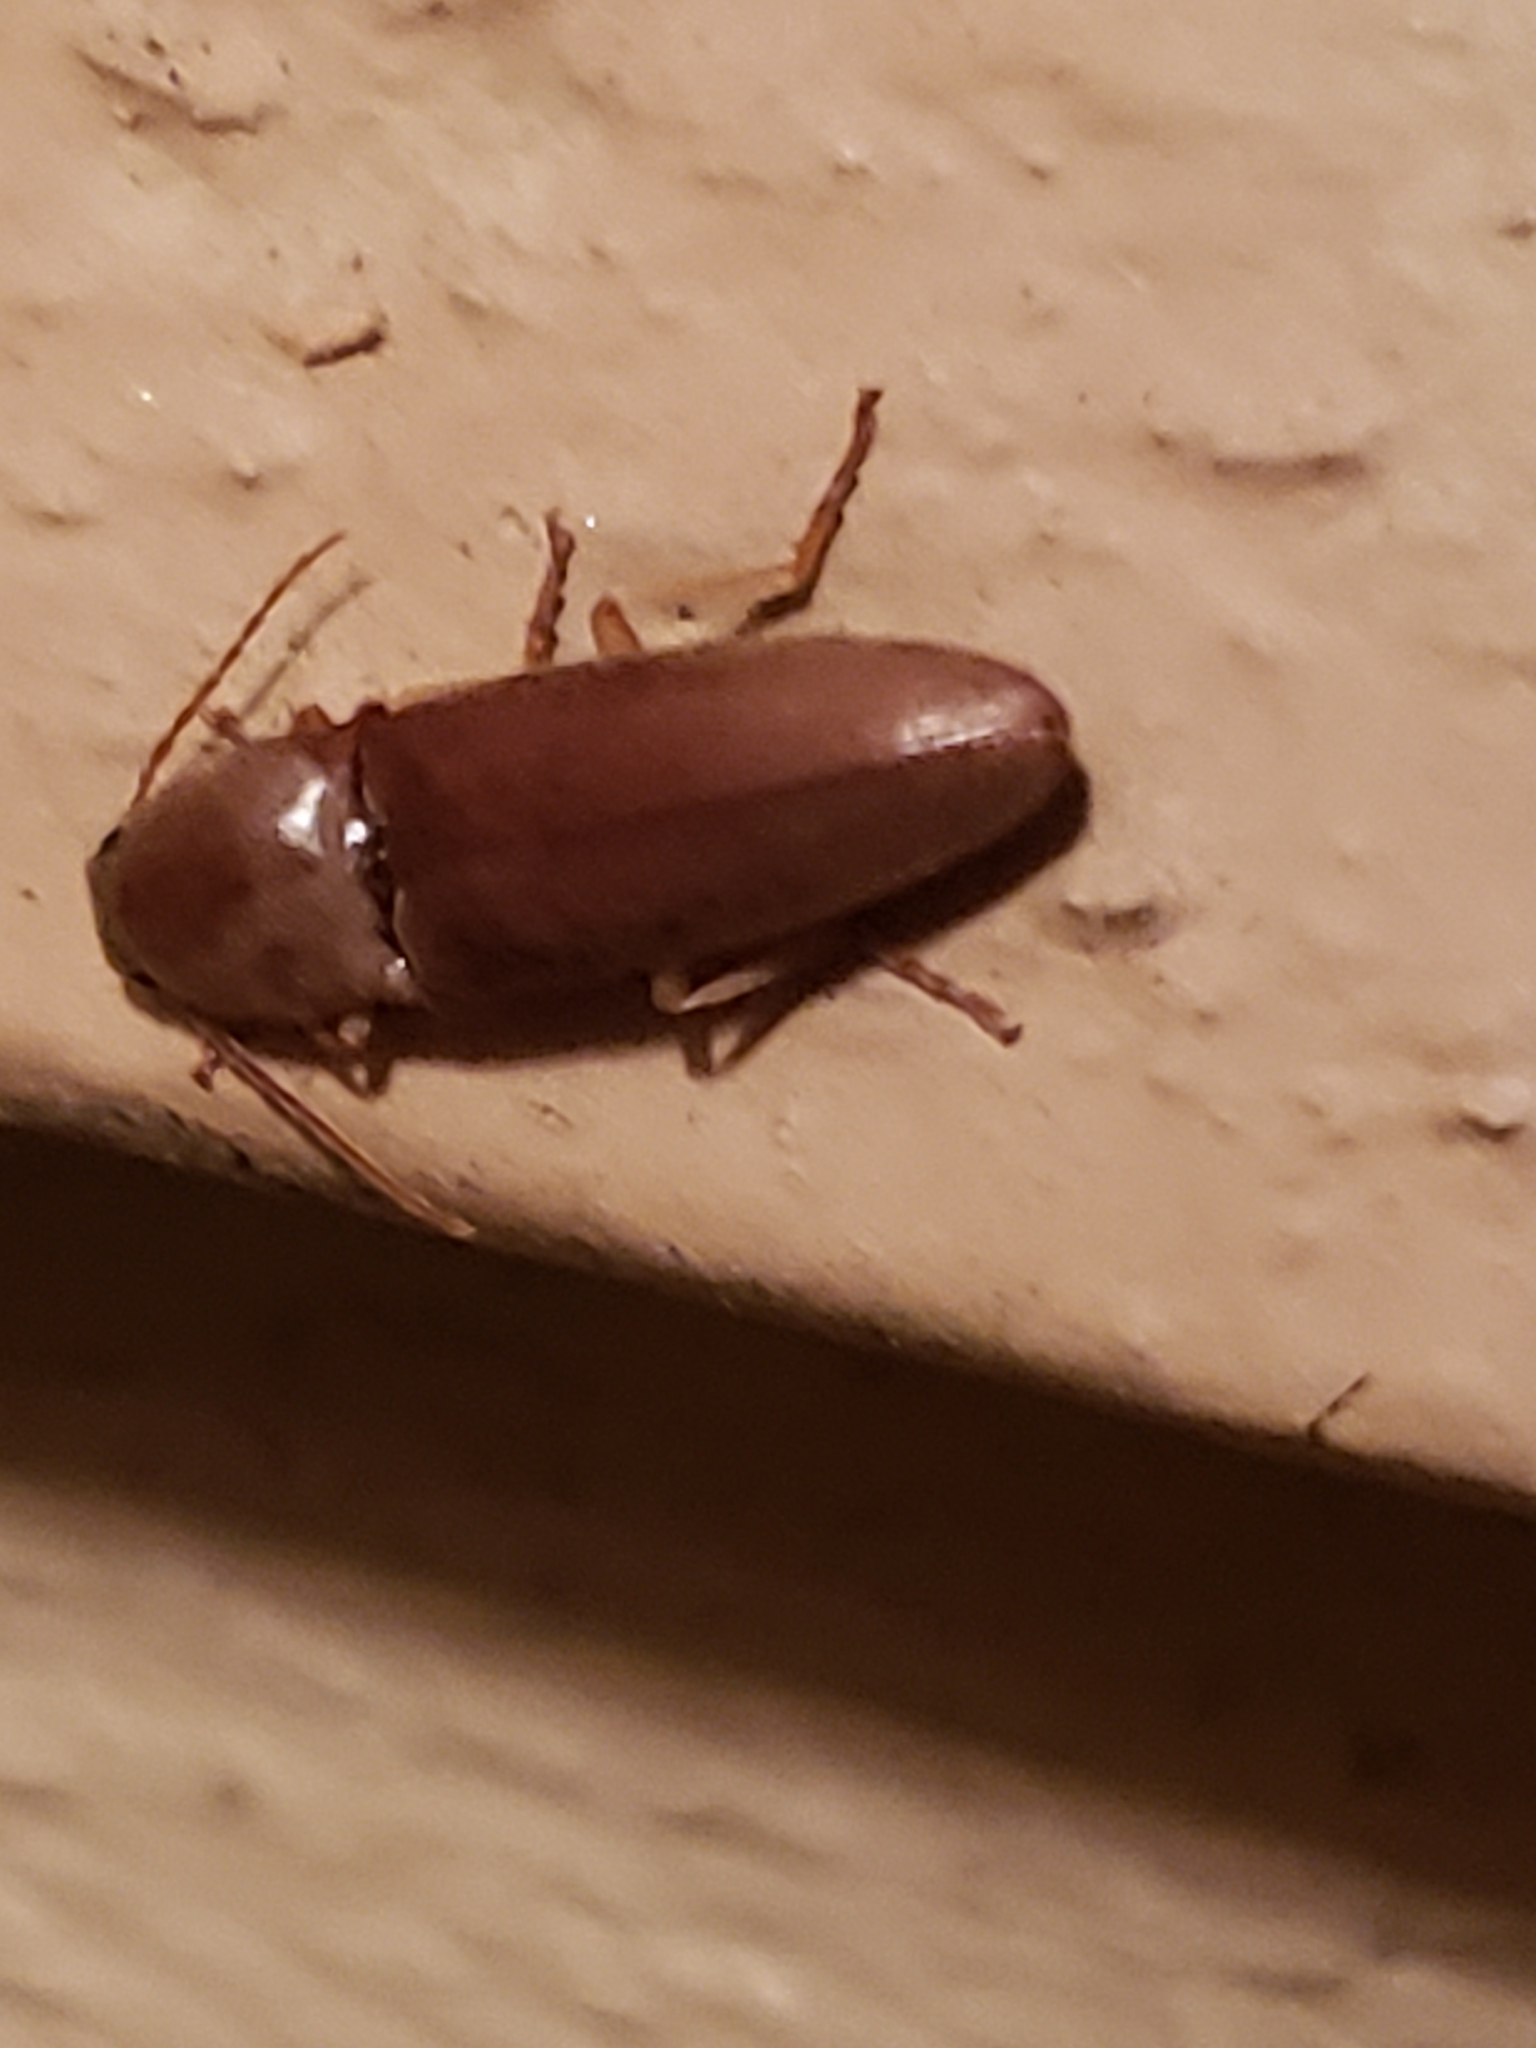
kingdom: Animalia
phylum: Arthropoda
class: Insecta
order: Coleoptera
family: Elateridae
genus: Monocrepidius
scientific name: Monocrepidius lividus
